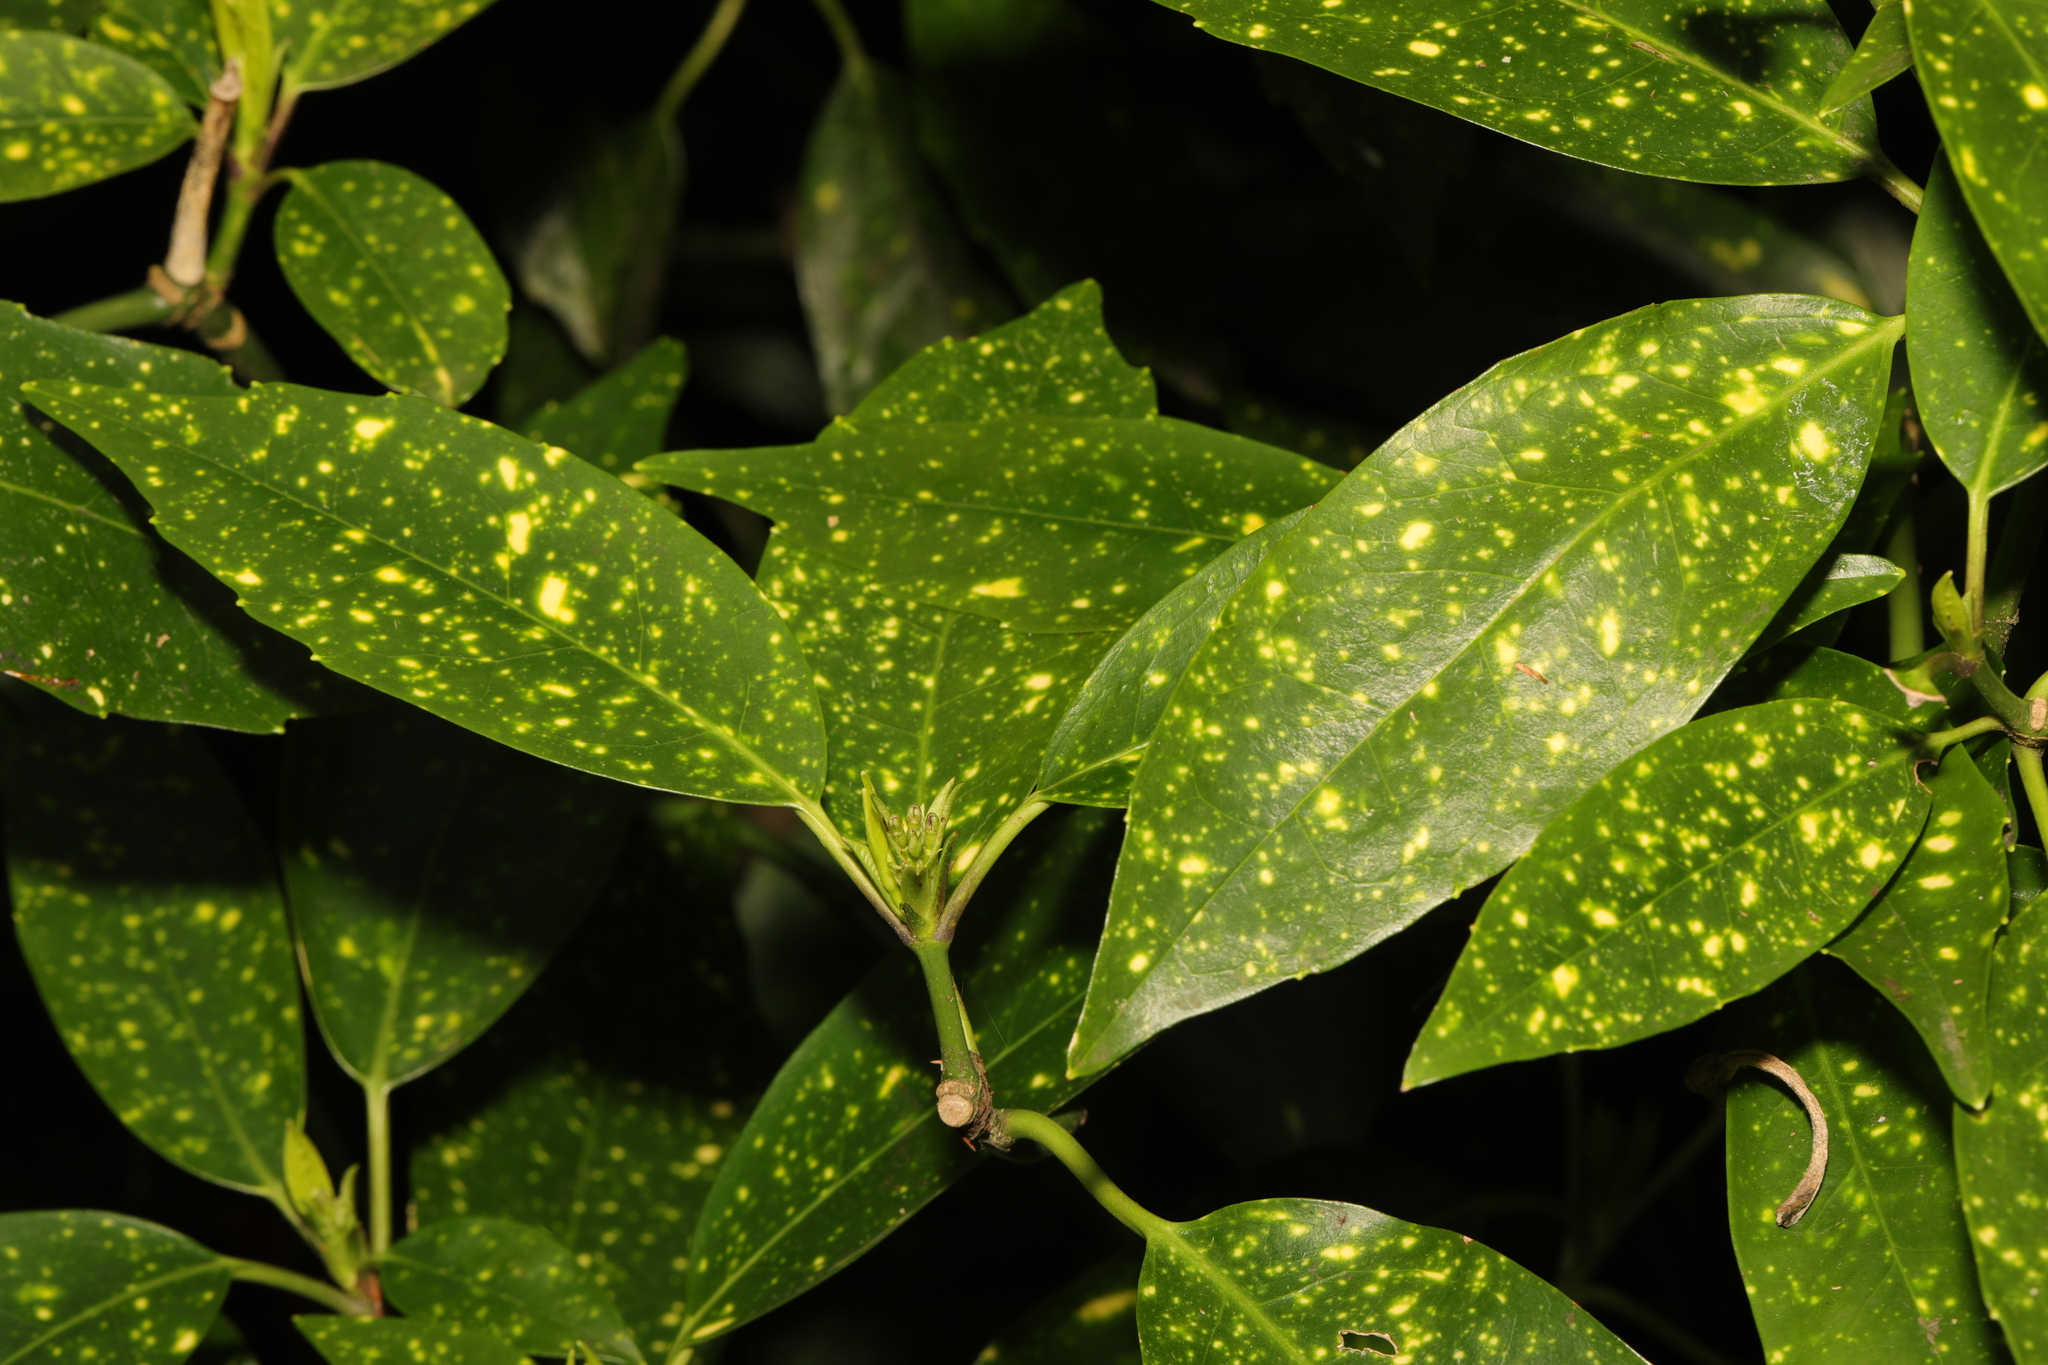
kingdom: Plantae
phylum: Tracheophyta
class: Magnoliopsida
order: Garryales
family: Garryaceae
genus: Aucuba
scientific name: Aucuba japonica
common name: Spotted-laurel
